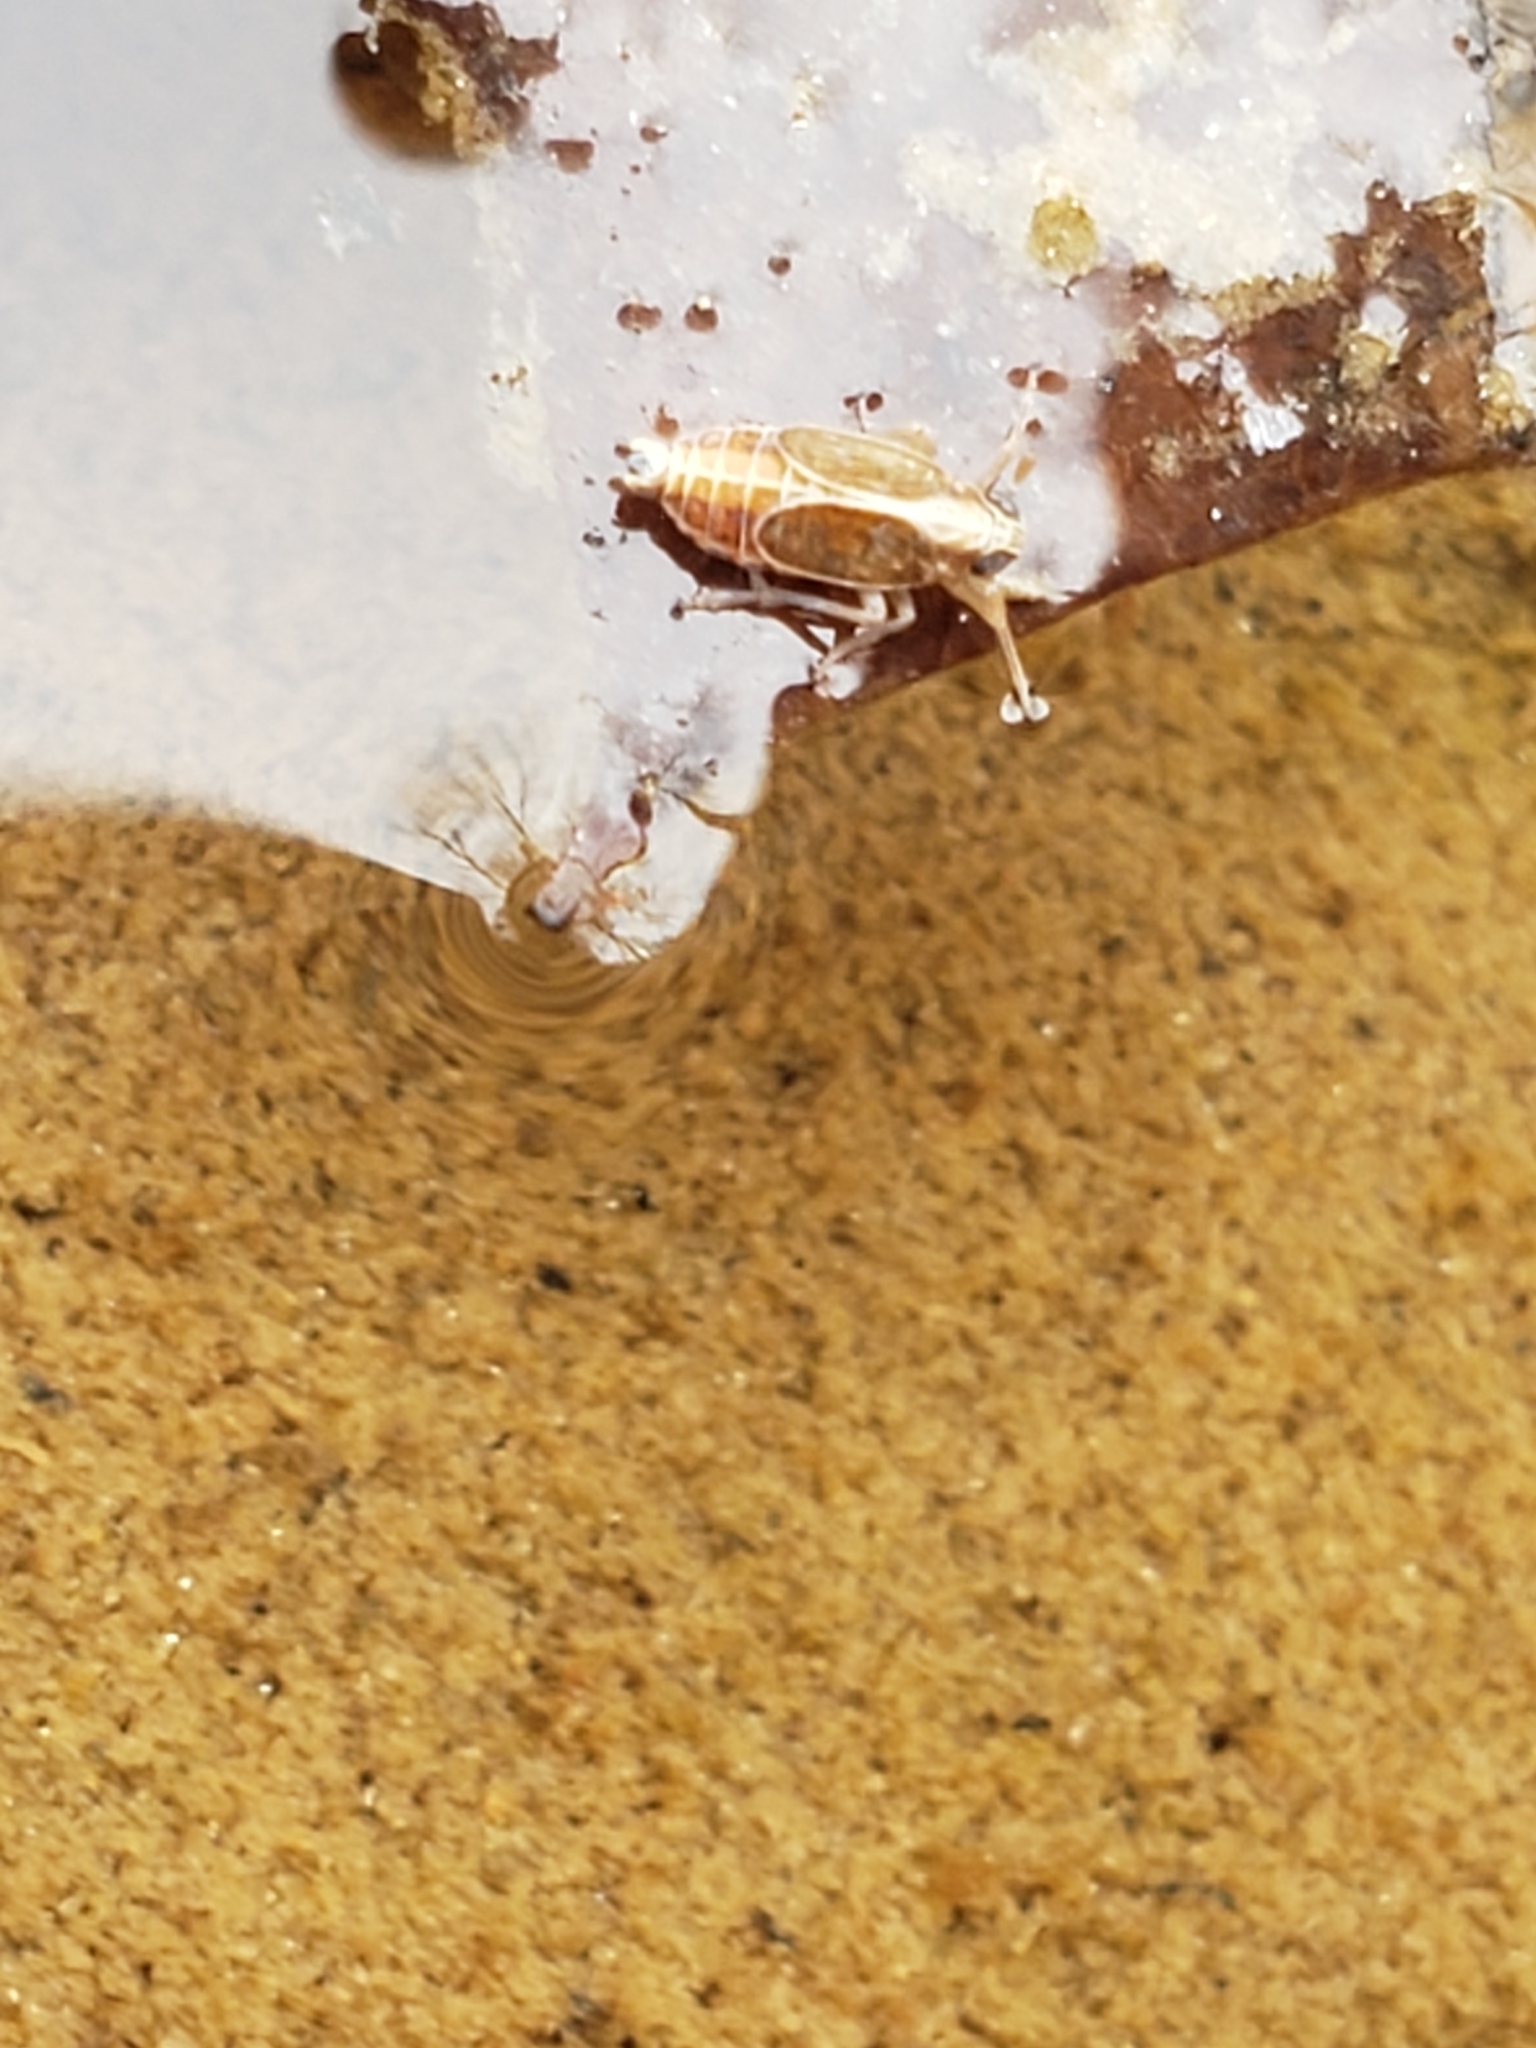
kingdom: Animalia
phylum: Arthropoda
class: Insecta
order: Hemiptera
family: Delphacidae
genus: Muellerianella
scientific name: Muellerianella laminalis
